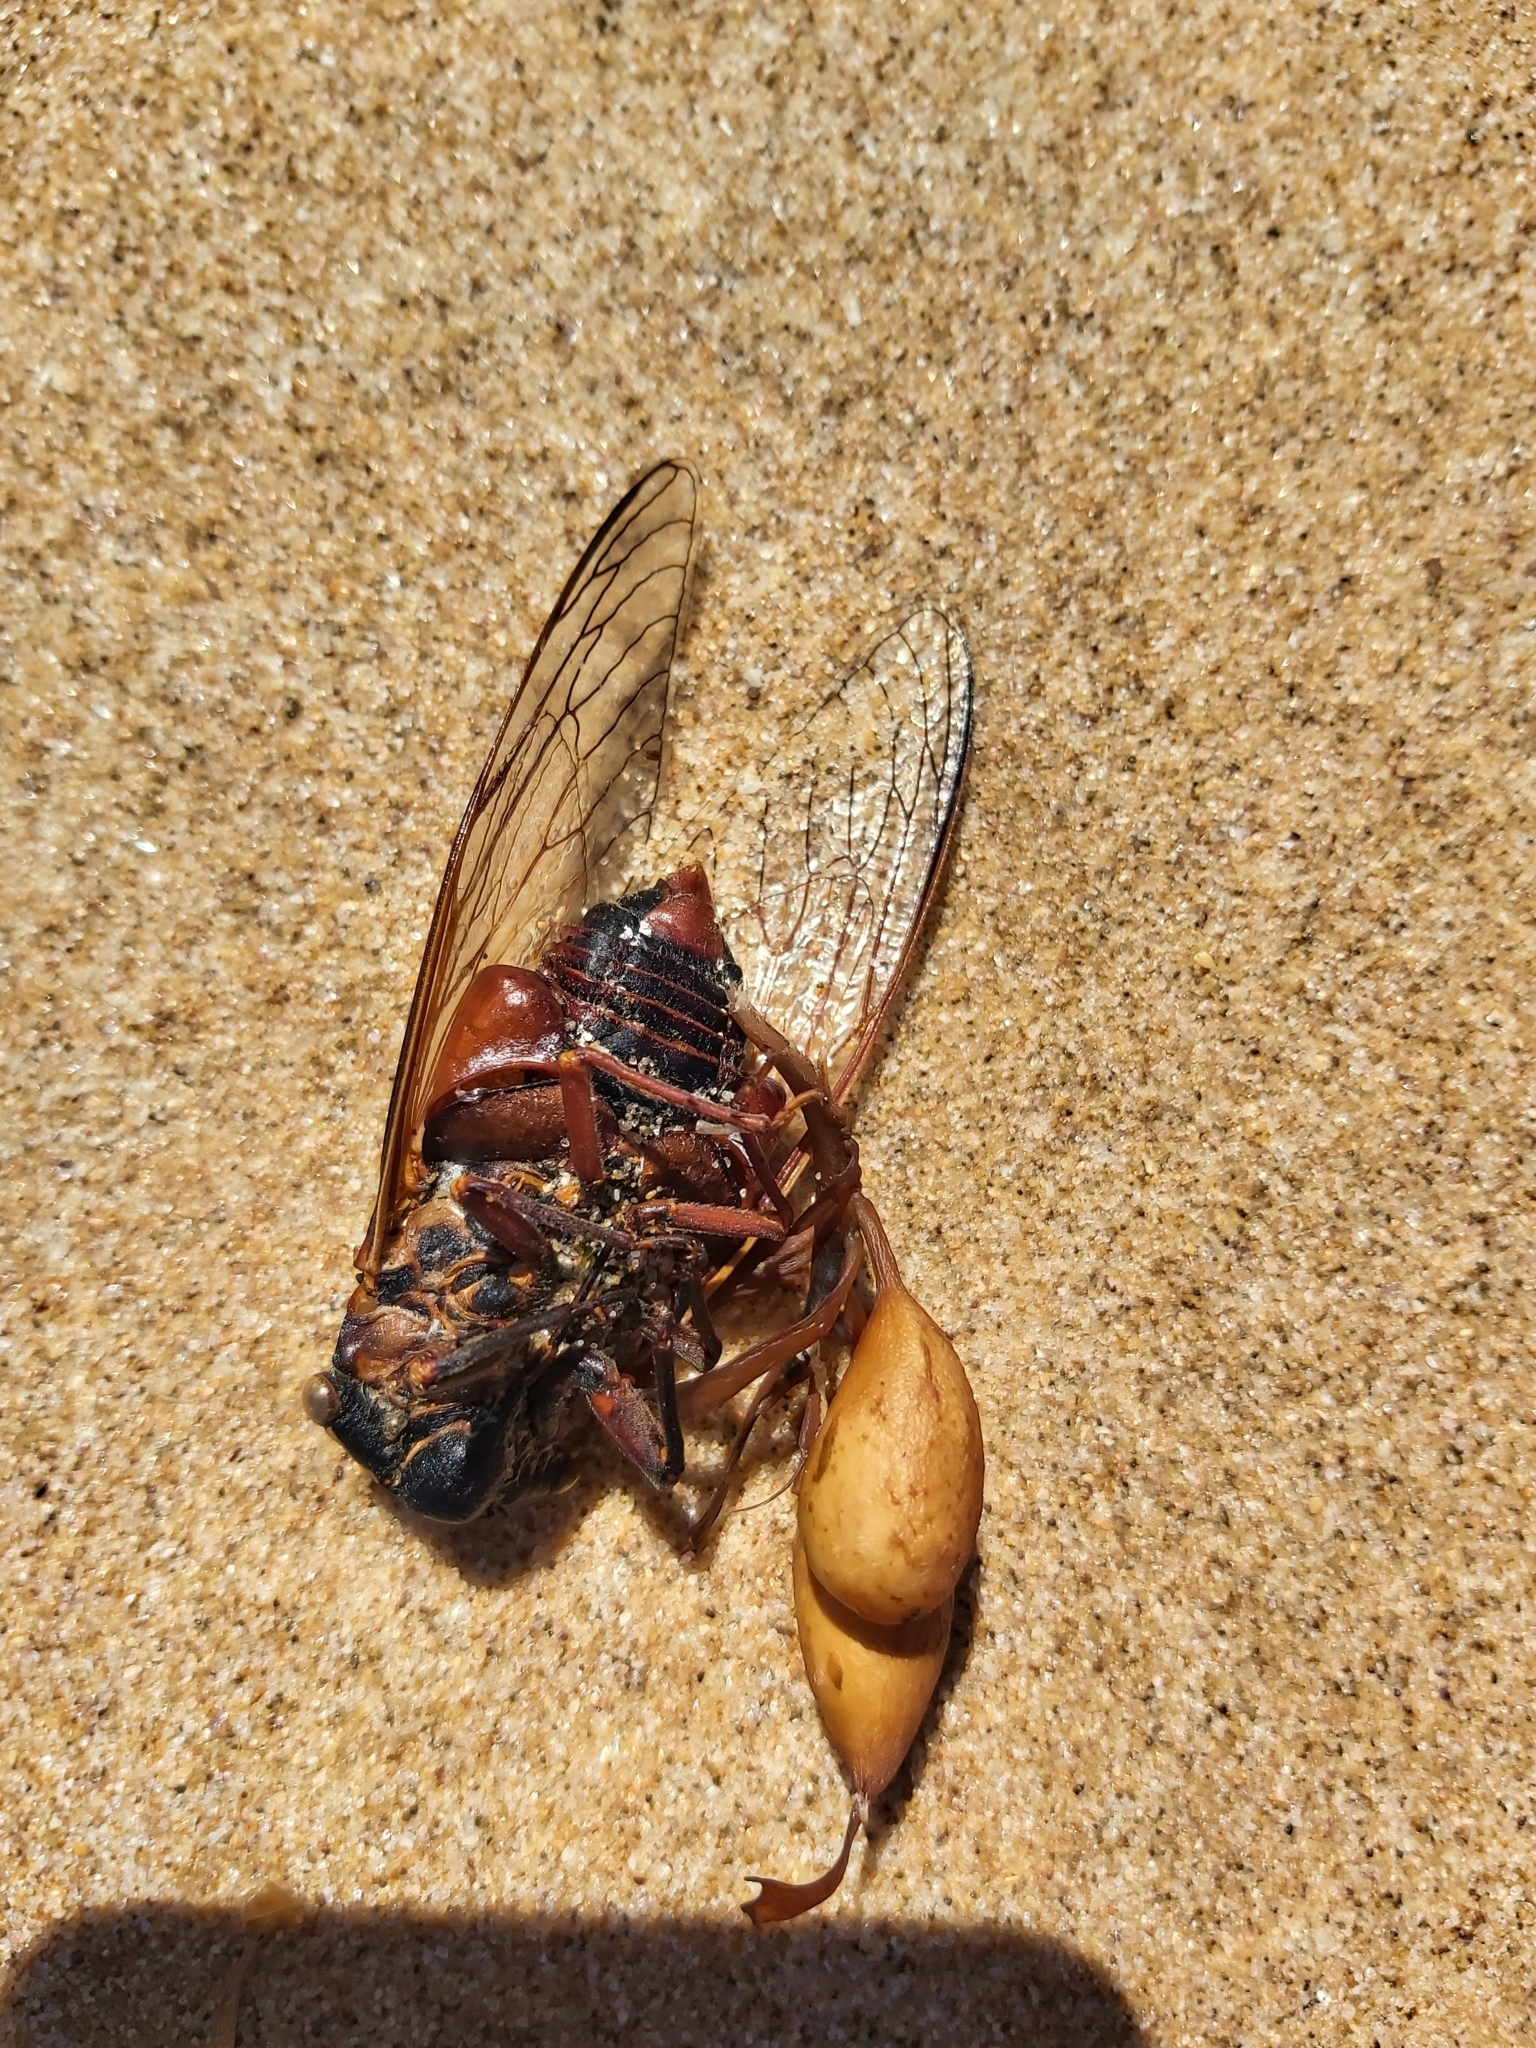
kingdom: Animalia
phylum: Arthropoda
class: Insecta
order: Hemiptera
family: Cicadidae
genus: Thopha
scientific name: Thopha saccata
